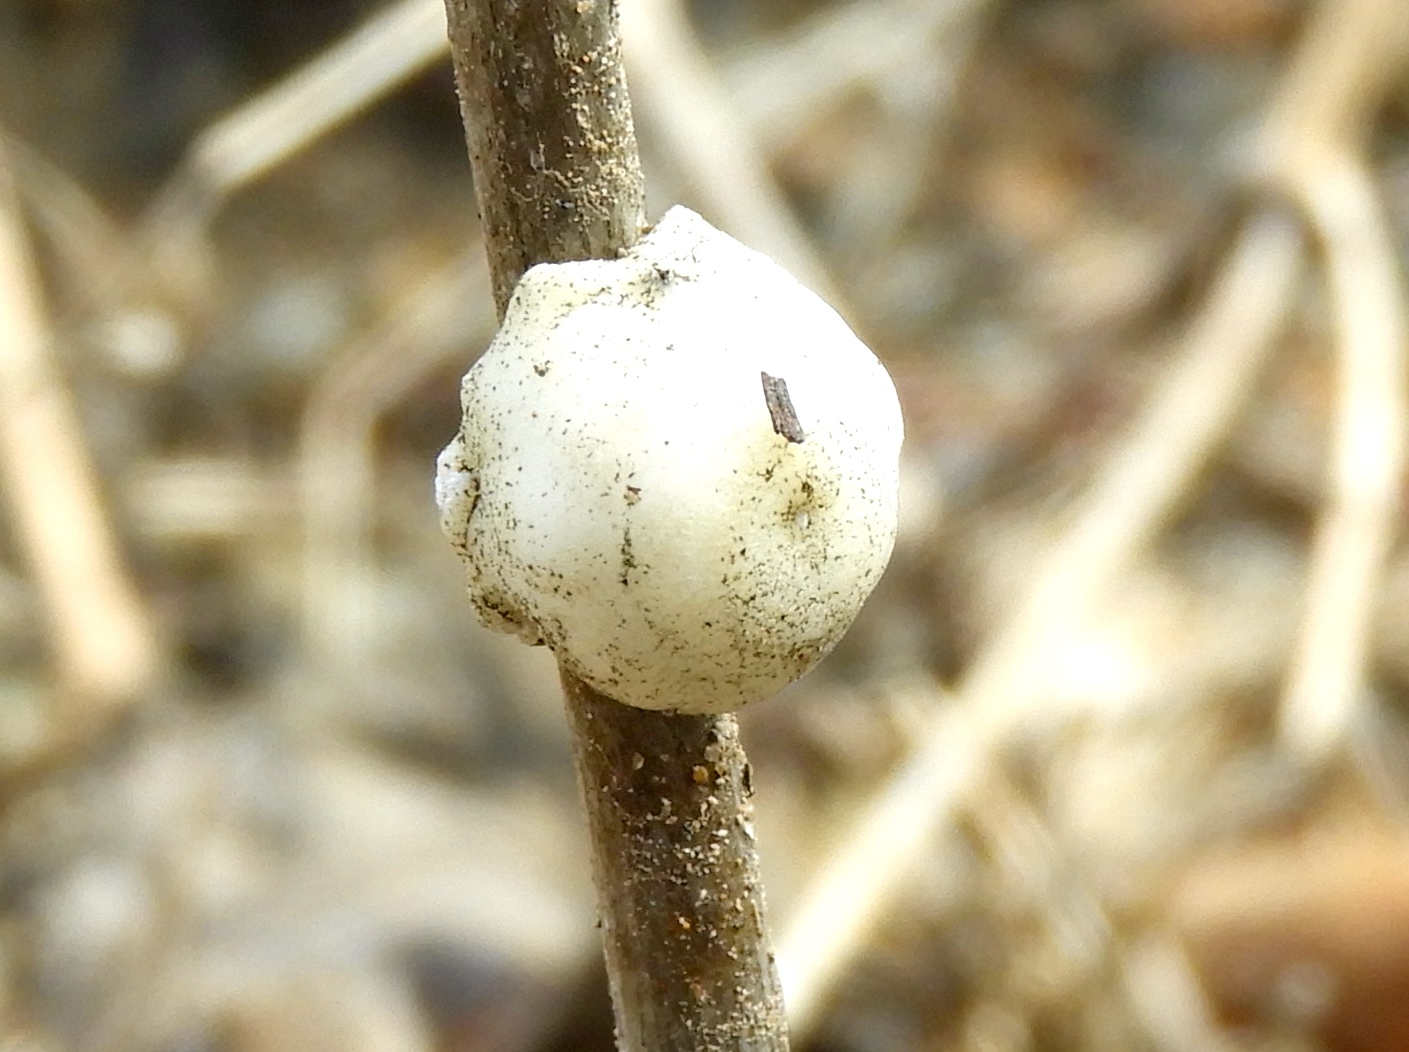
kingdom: Animalia
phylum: Arthropoda
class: Insecta
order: Hemiptera
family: Coccidae
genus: Ceroplastes
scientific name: Ceroplastes
